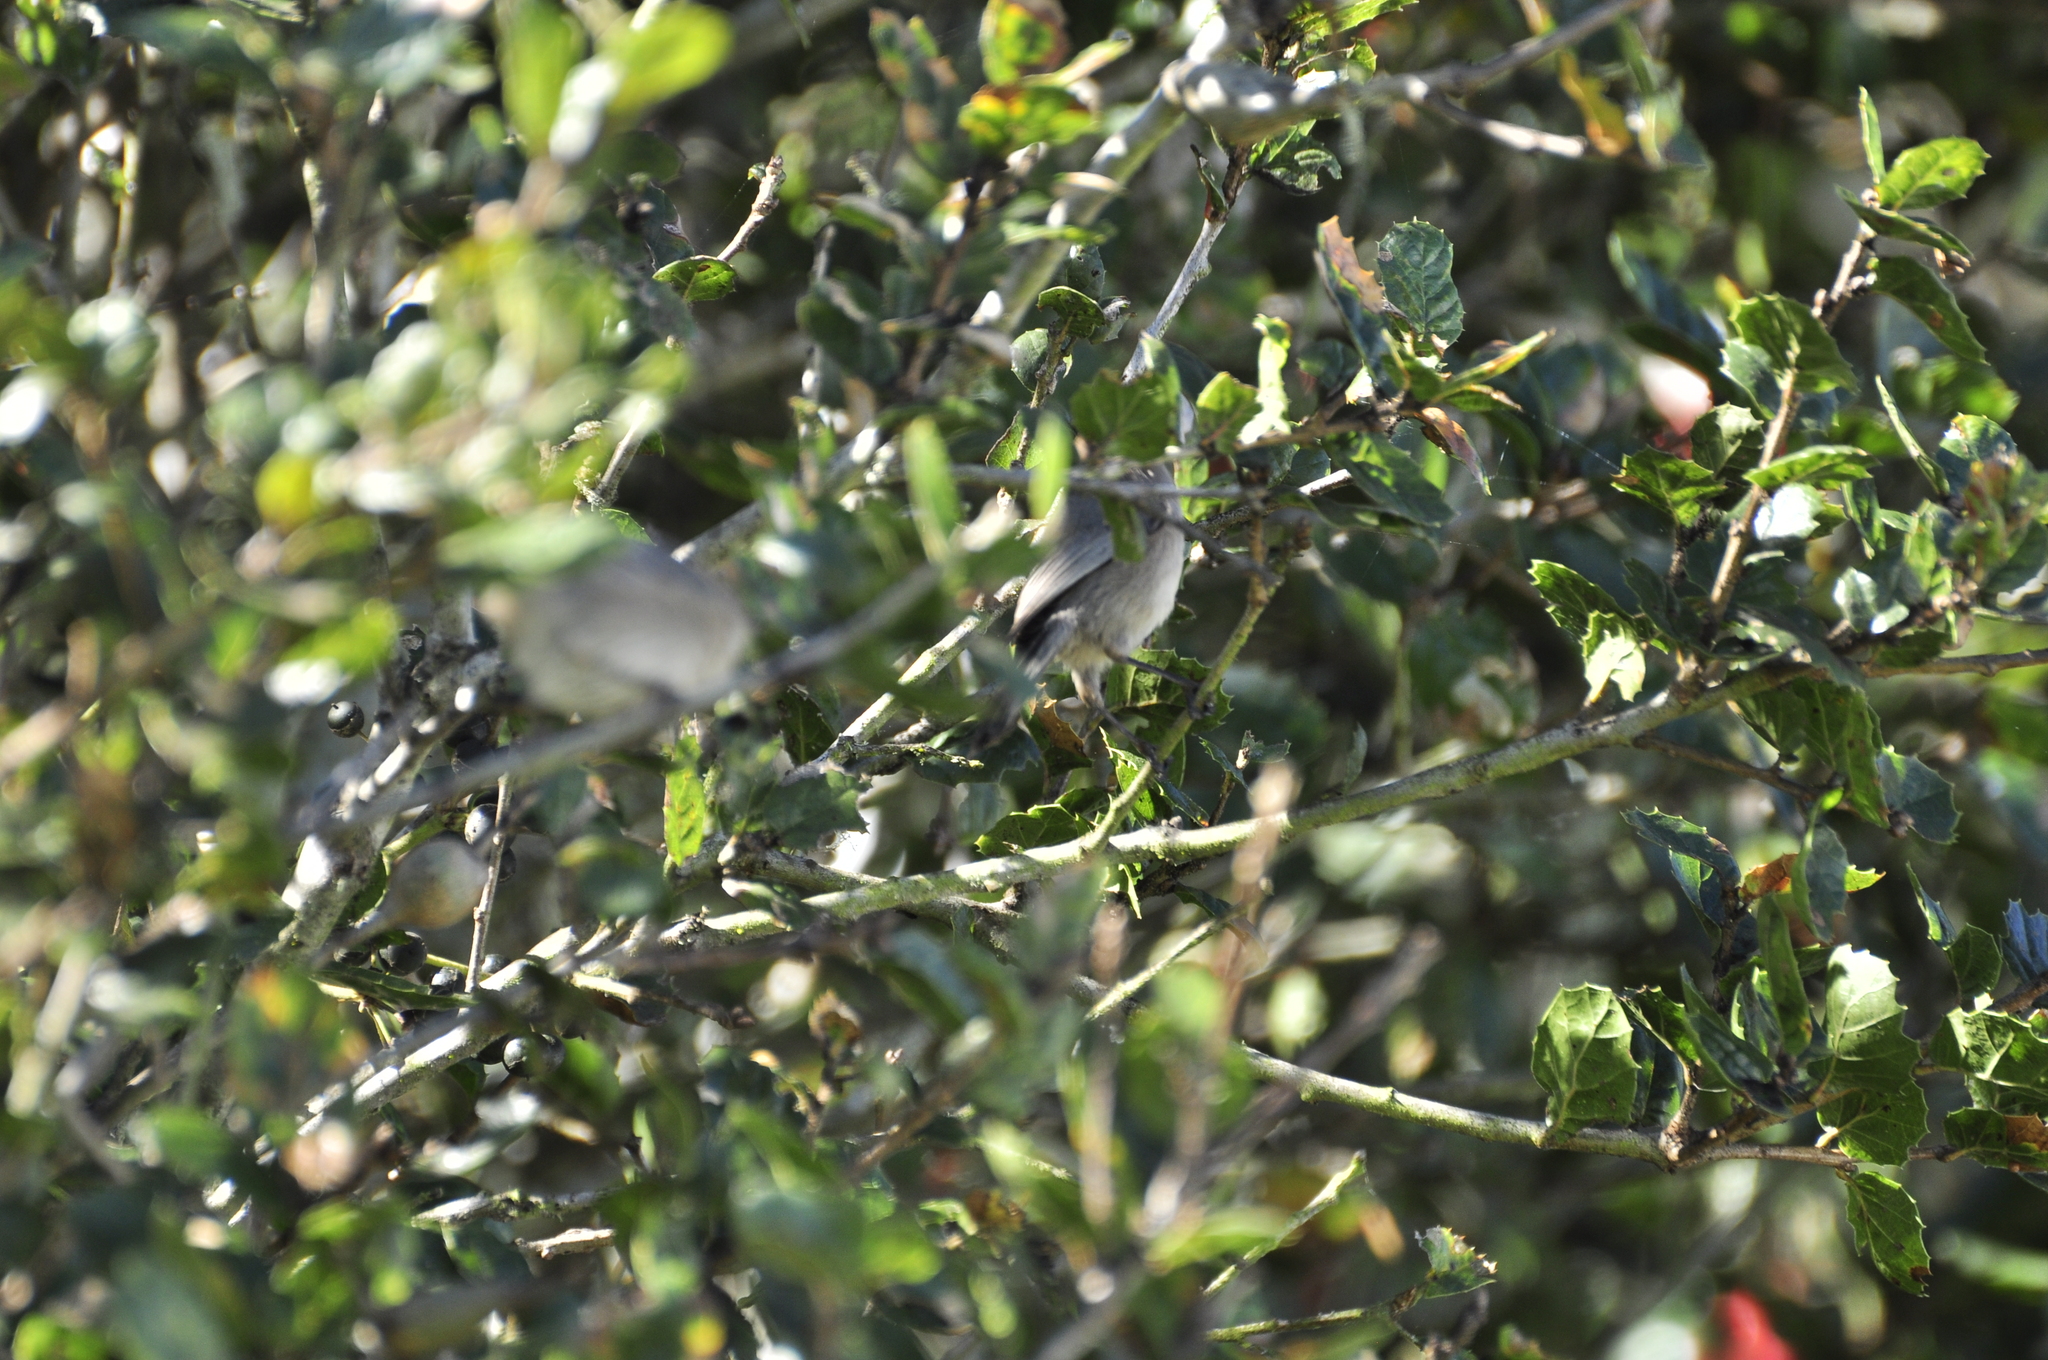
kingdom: Animalia
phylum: Chordata
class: Aves
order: Passeriformes
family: Aegithalidae
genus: Psaltriparus
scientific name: Psaltriparus minimus
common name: American bushtit
